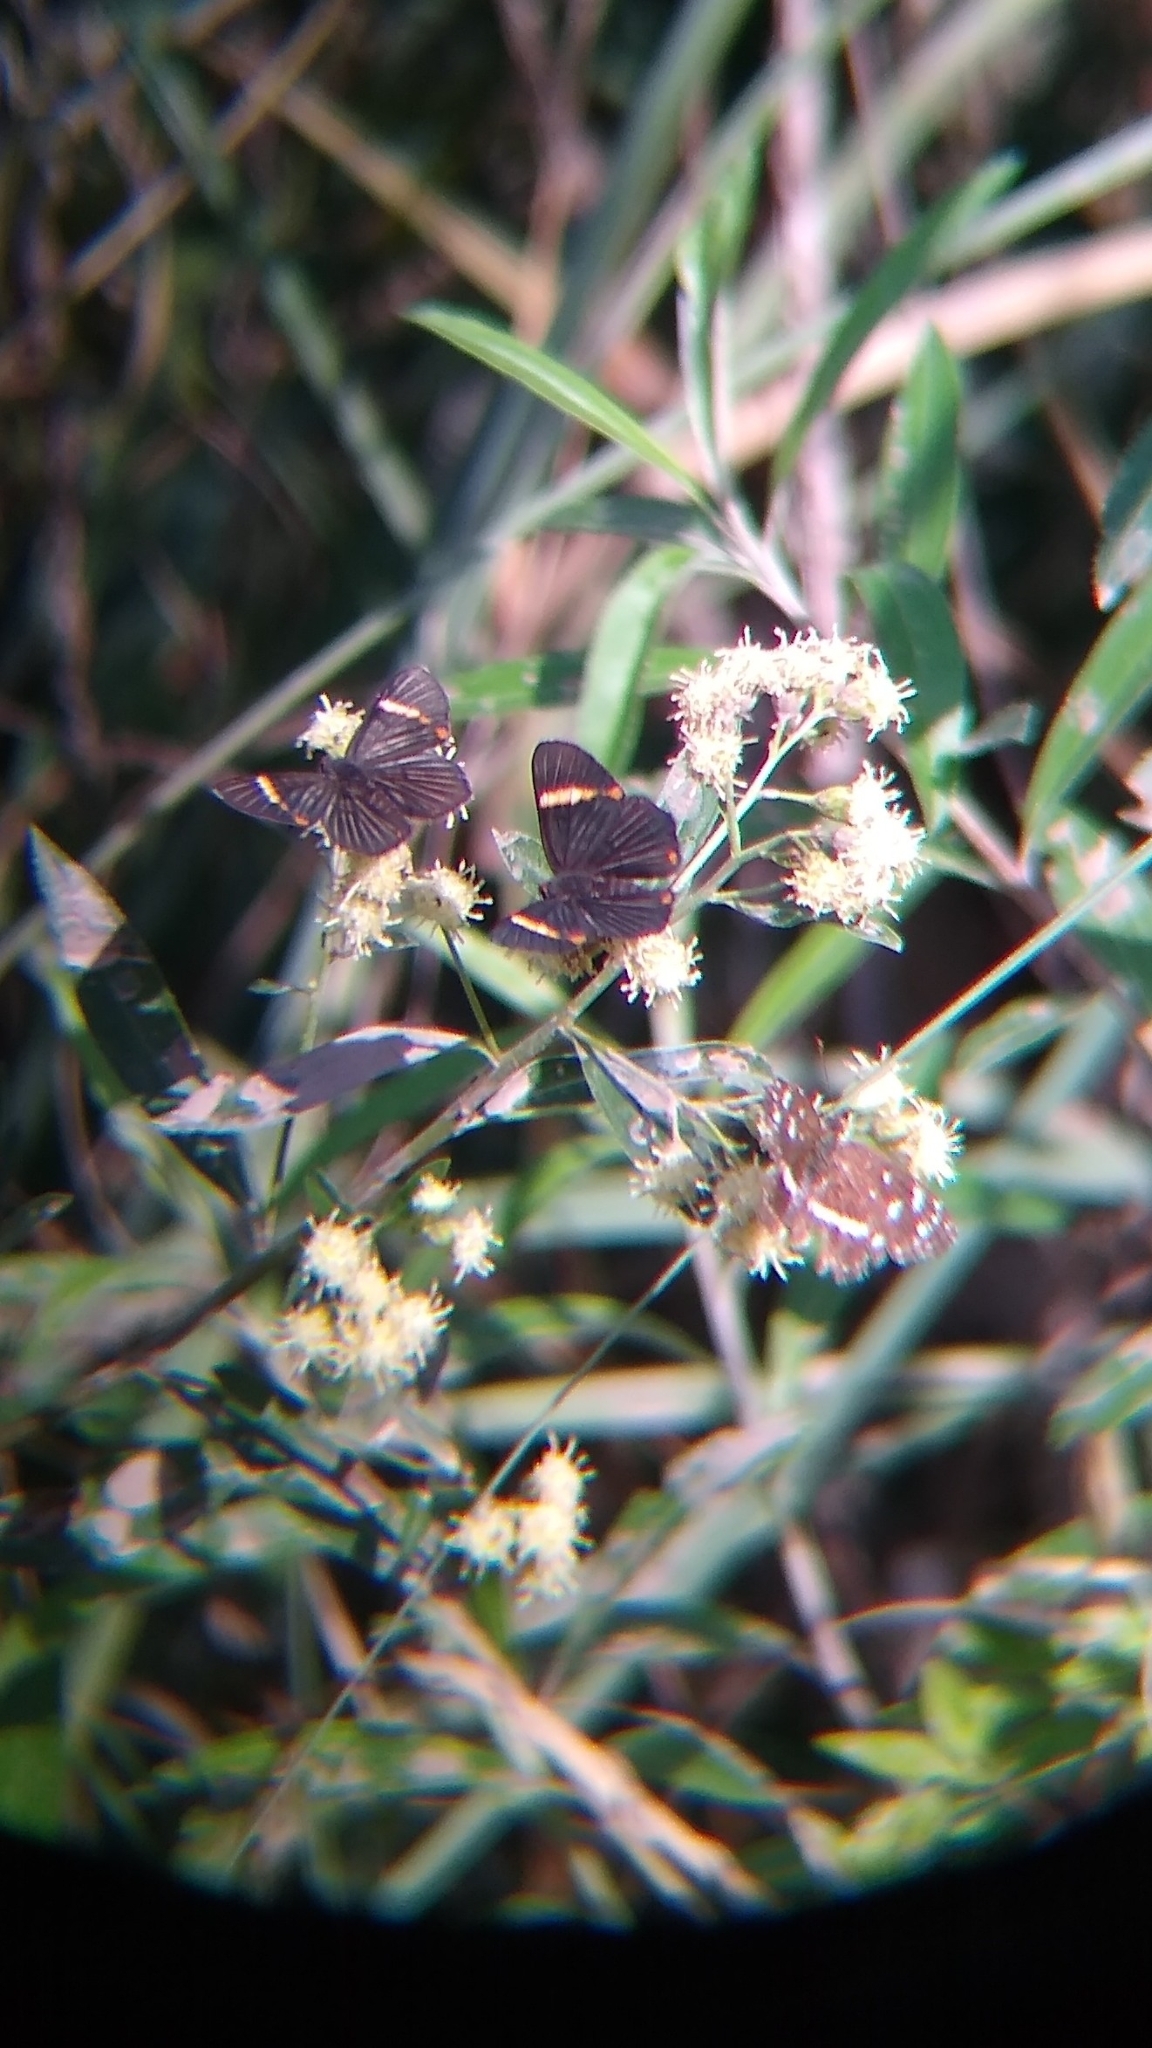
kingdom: Animalia
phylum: Arthropoda
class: Insecta
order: Lepidoptera
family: Riodinidae
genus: Riodina
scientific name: Riodina lycisca
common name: Lycisca metalmark
